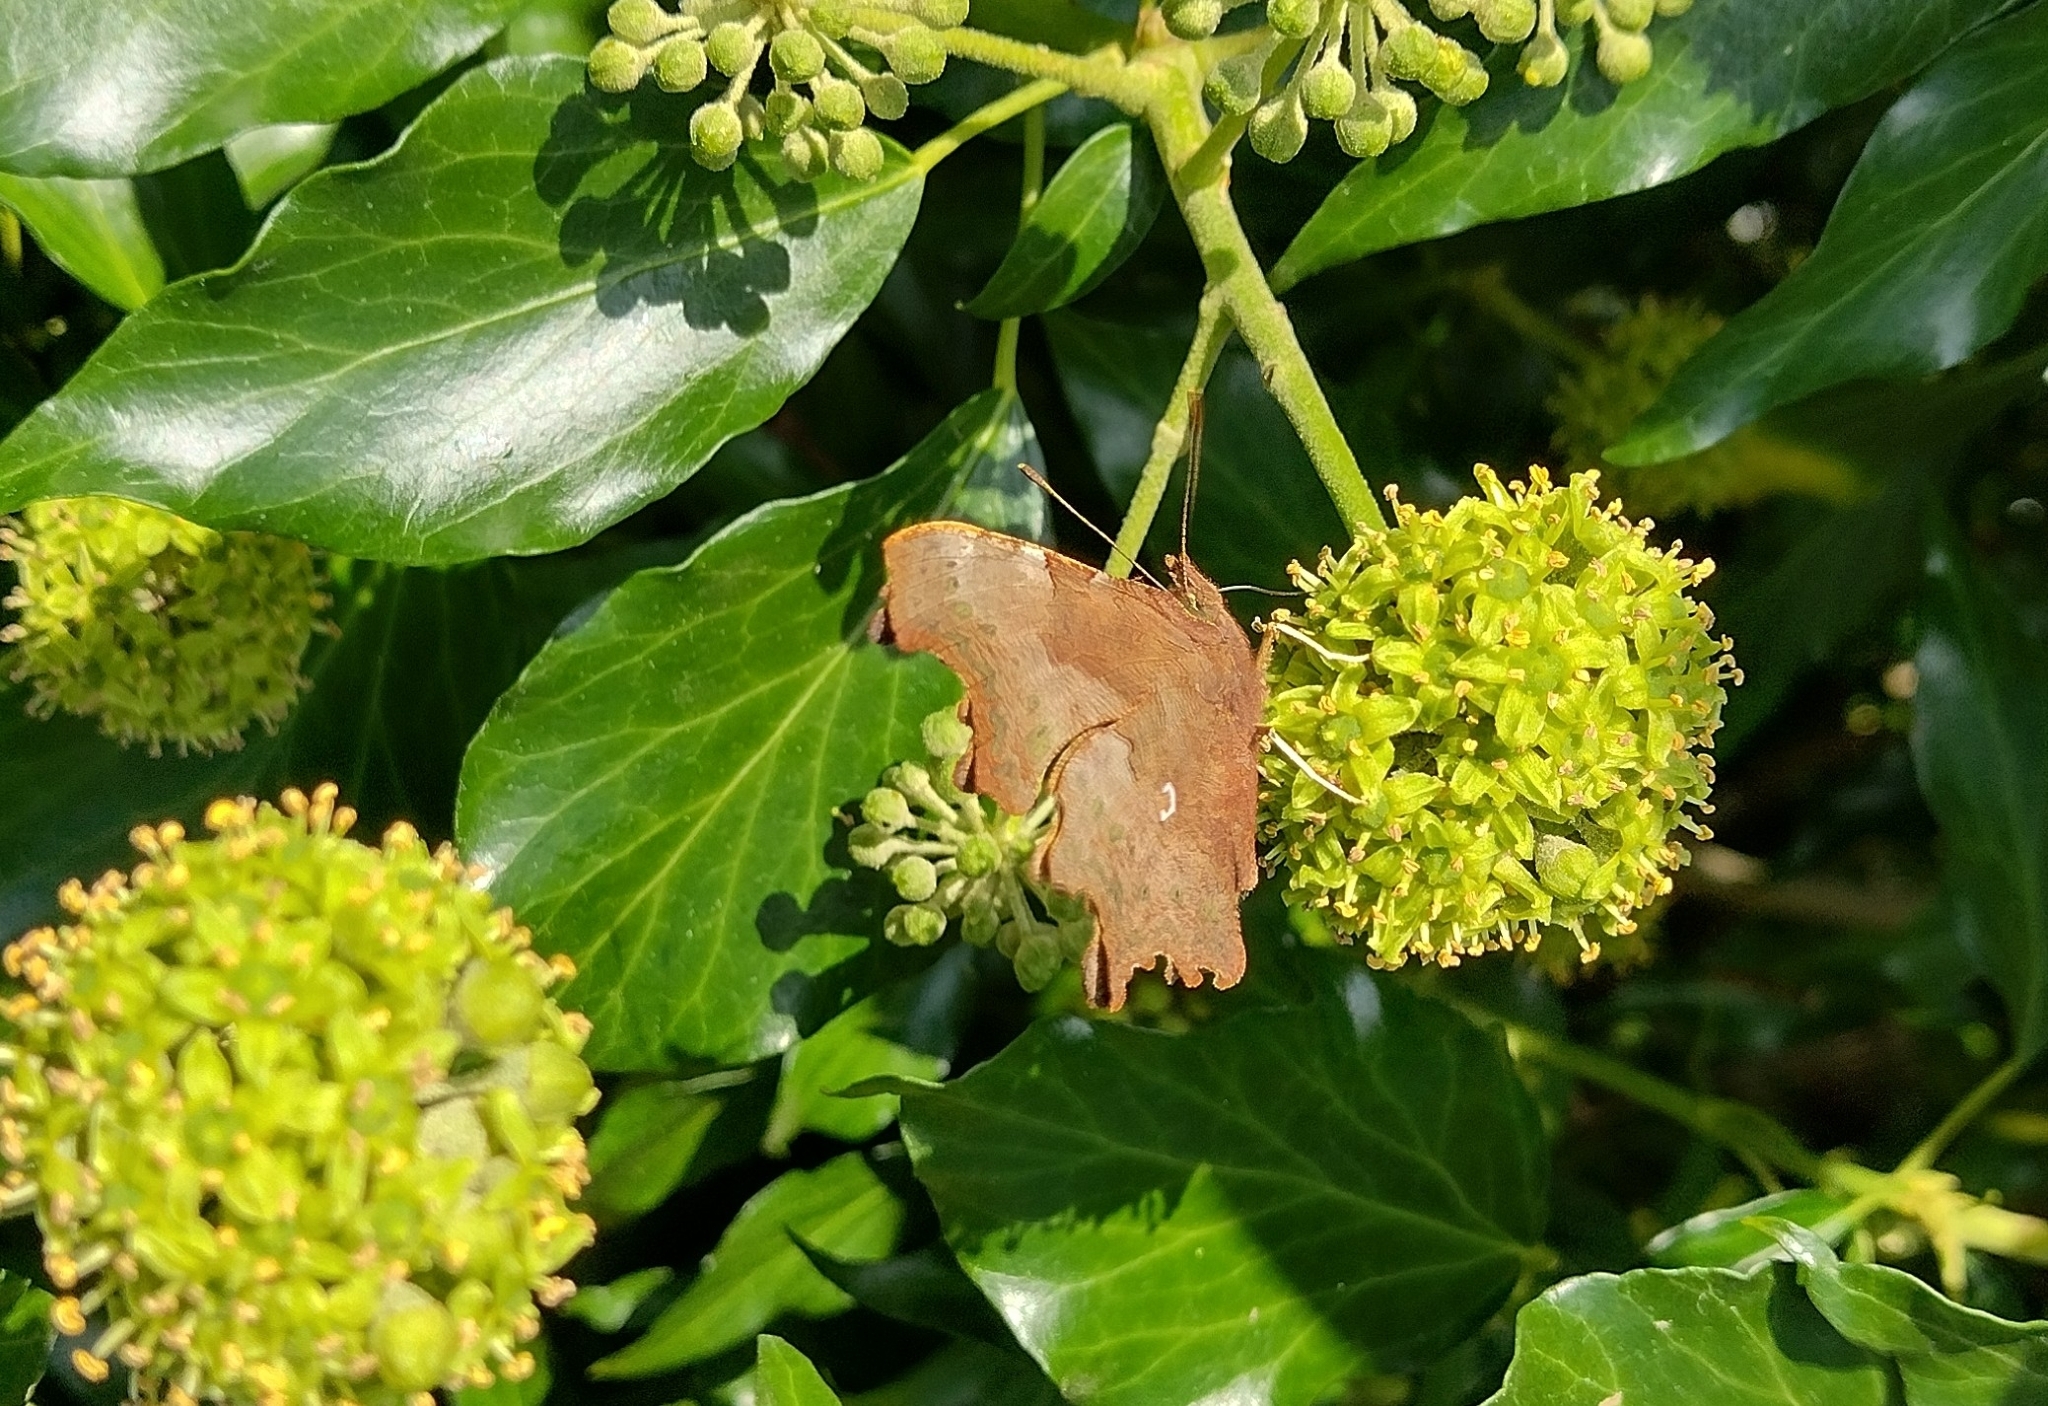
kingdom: Animalia
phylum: Arthropoda
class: Insecta
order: Lepidoptera
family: Nymphalidae
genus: Polygonia
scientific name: Polygonia c-album
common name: Comma
